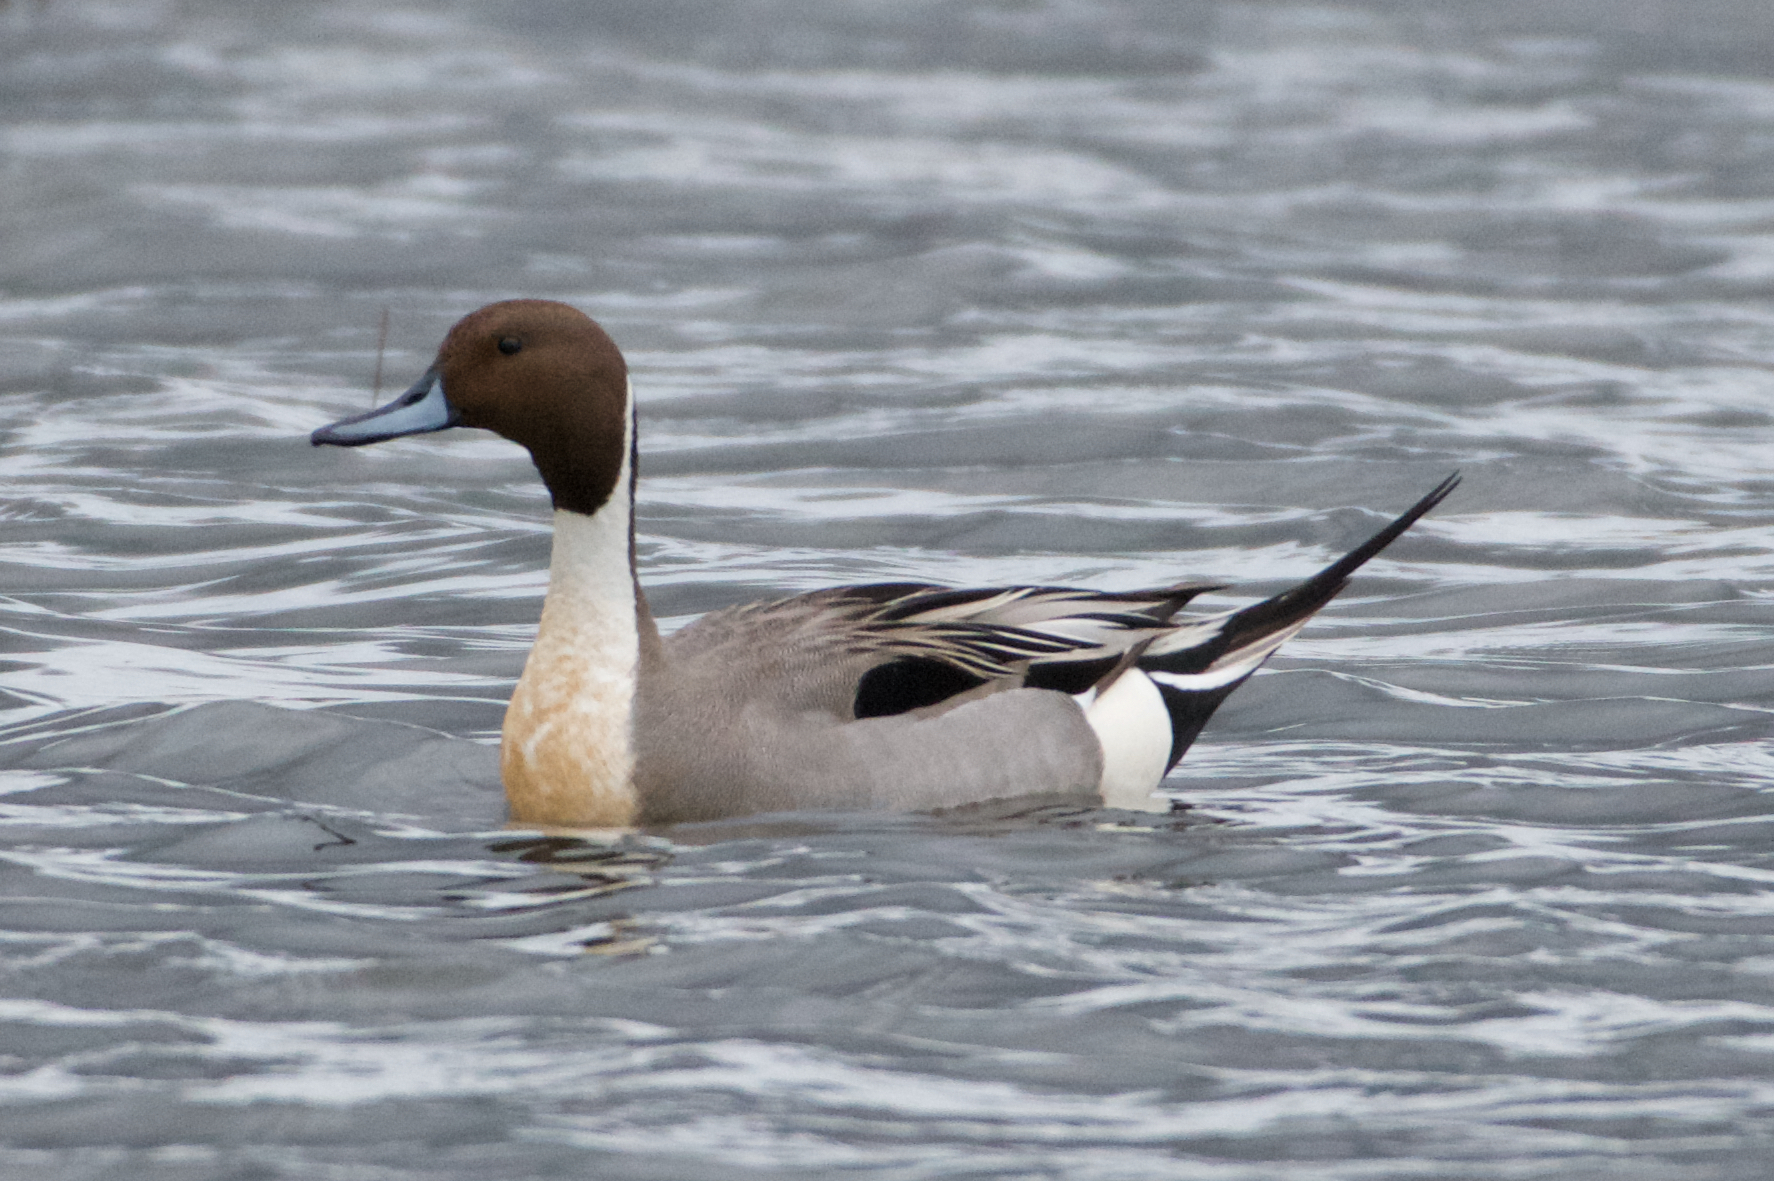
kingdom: Animalia
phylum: Chordata
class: Aves
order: Anseriformes
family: Anatidae
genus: Anas
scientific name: Anas acuta
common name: Northern pintail
